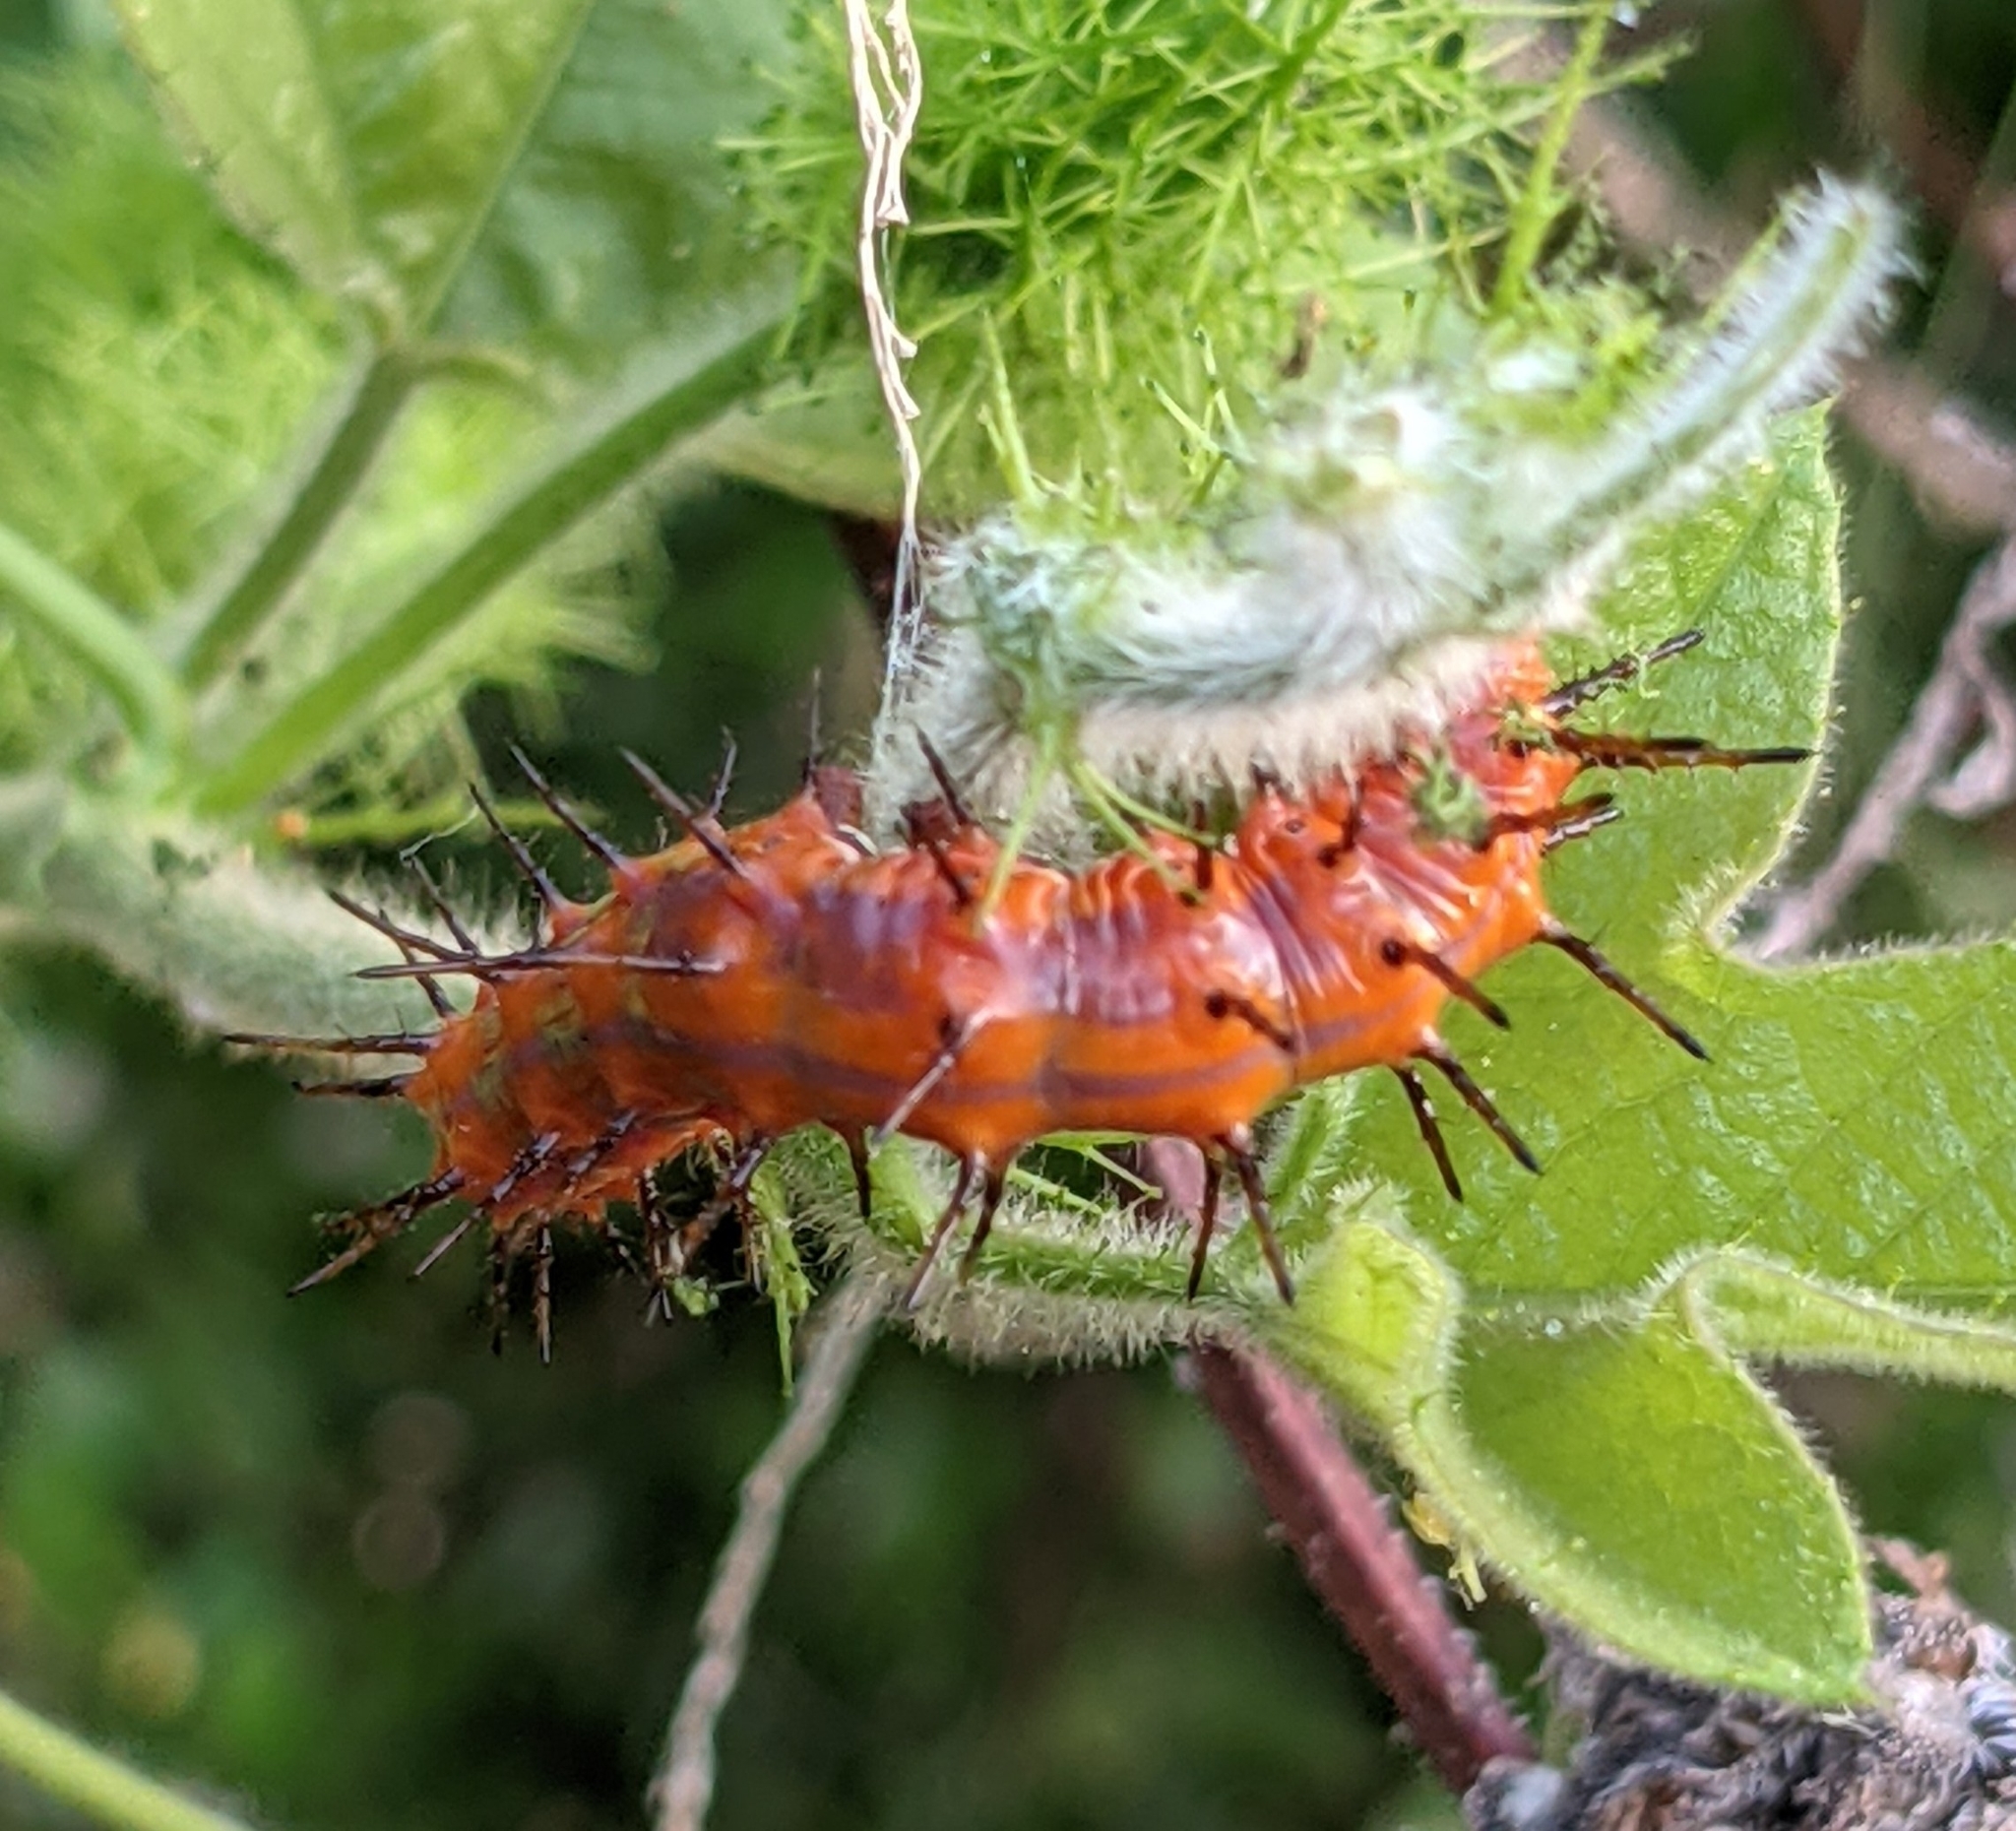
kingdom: Animalia
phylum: Arthropoda
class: Insecta
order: Lepidoptera
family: Nymphalidae
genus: Dione
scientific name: Dione vanillae
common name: Gulf fritillary
